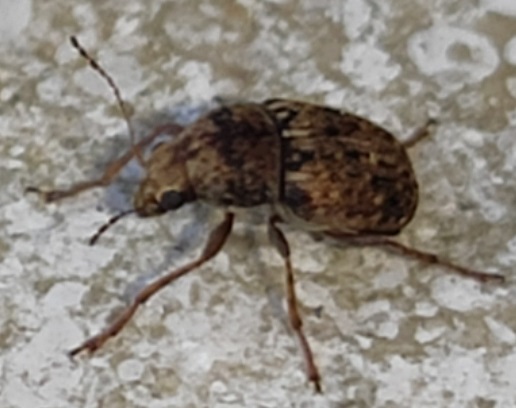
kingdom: Animalia
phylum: Arthropoda
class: Insecta
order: Coleoptera
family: Anthribidae
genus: Araecerus
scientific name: Araecerus fasciculatus
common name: Coffee bean weevil
